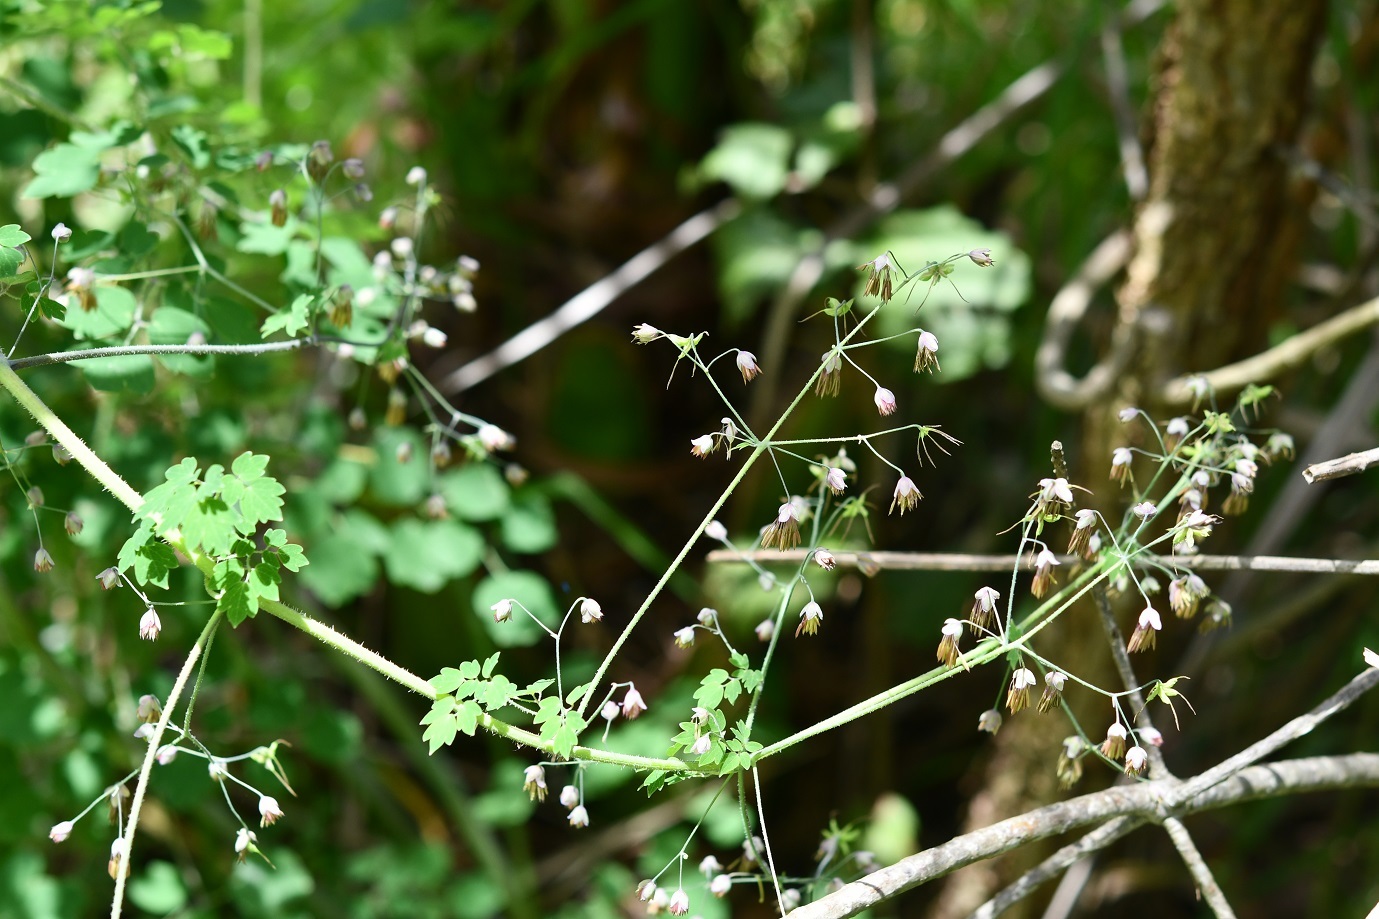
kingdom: Plantae
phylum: Tracheophyta
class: Magnoliopsida
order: Ranunculales
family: Ranunculaceae
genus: Thalictrum
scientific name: Thalictrum guatemalense
